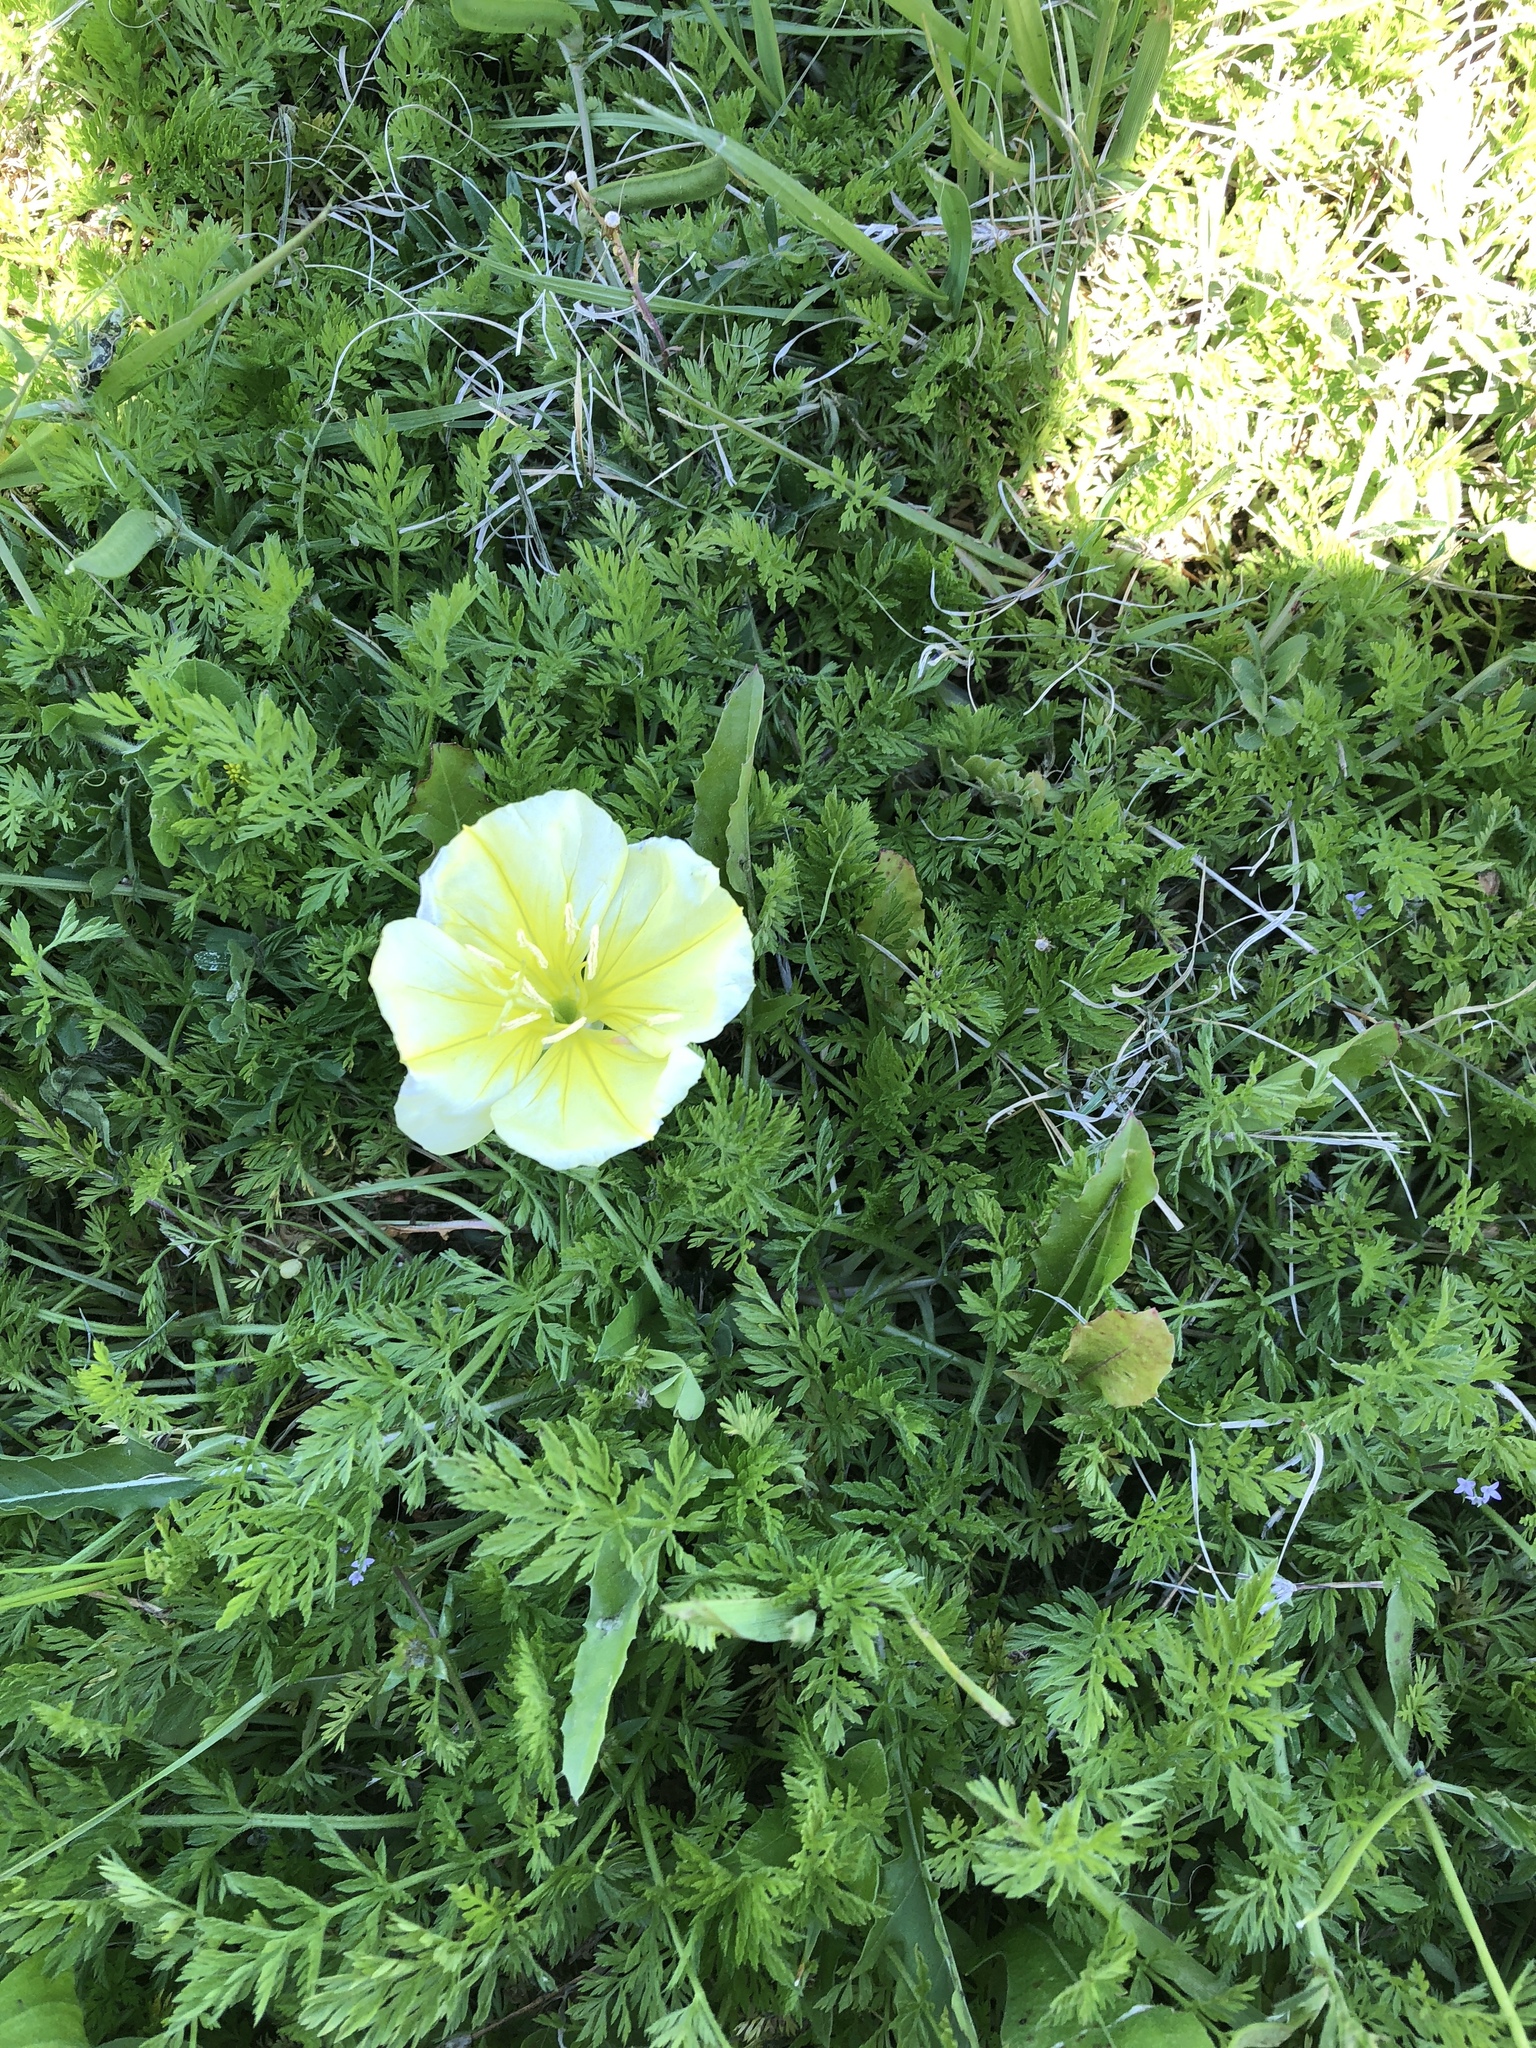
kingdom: Plantae
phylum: Tracheophyta
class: Magnoliopsida
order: Myrtales
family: Onagraceae
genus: Oenothera
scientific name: Oenothera triloba
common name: Sessile evening-primrose
